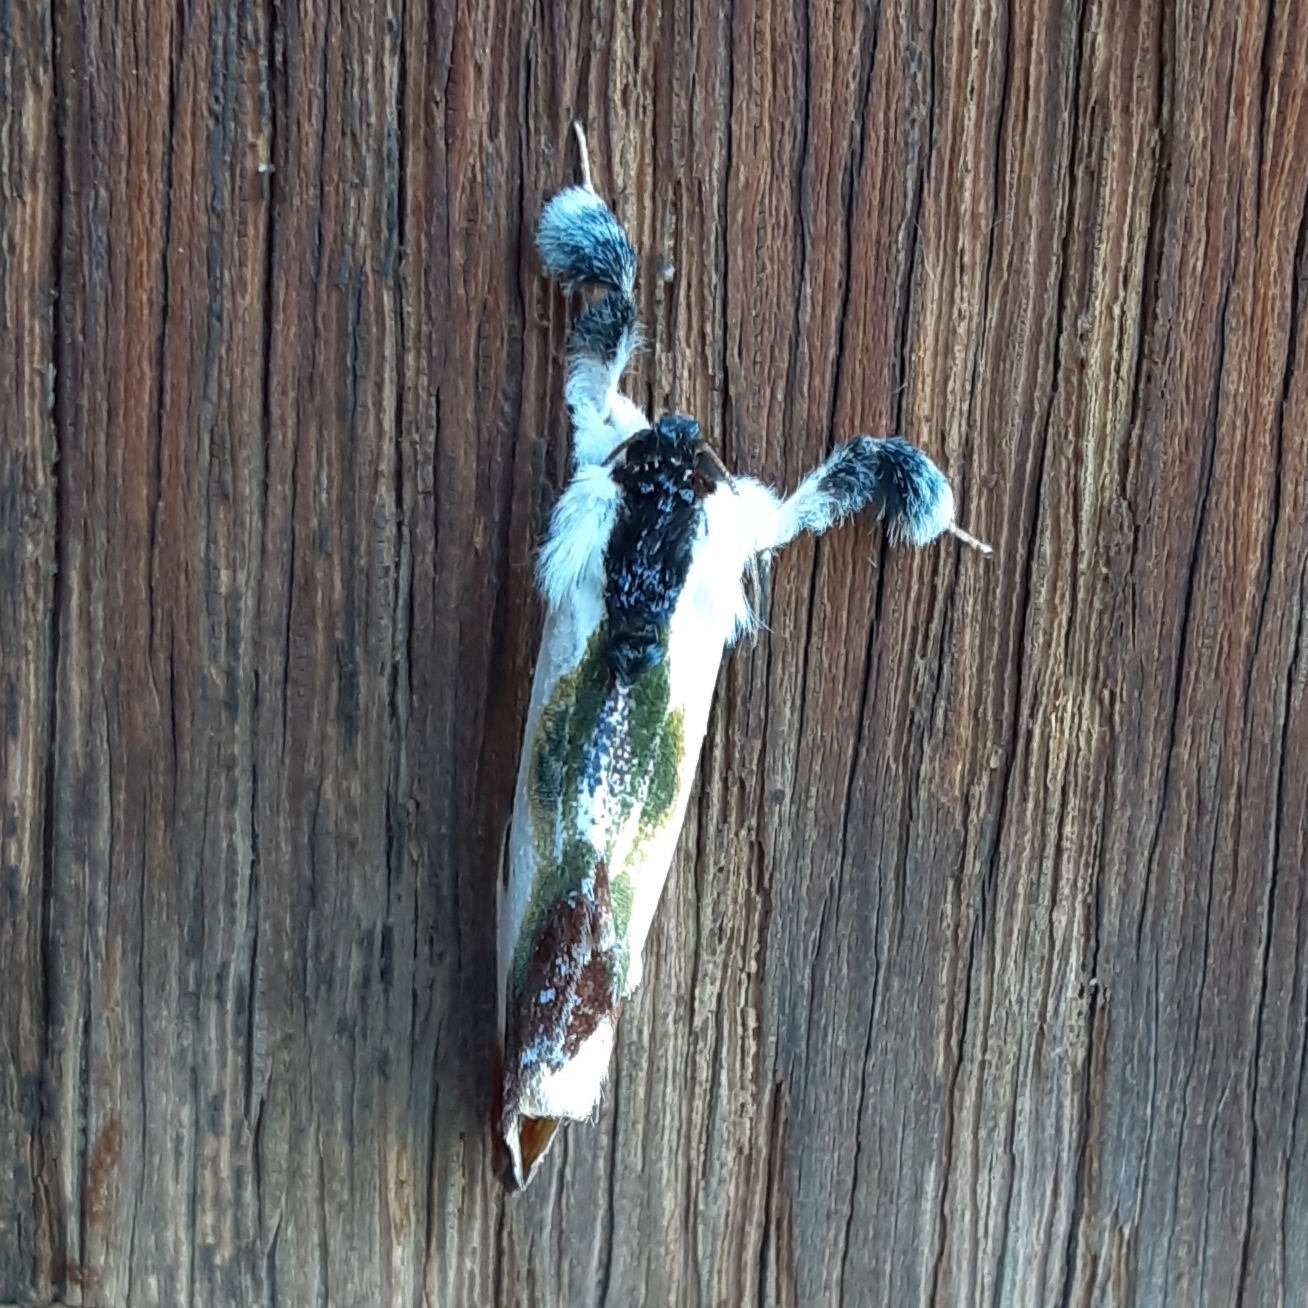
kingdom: Animalia
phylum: Arthropoda
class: Insecta
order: Lepidoptera
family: Noctuidae
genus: Eudryas
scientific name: Eudryas grata
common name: Beautiful wood-nymph
